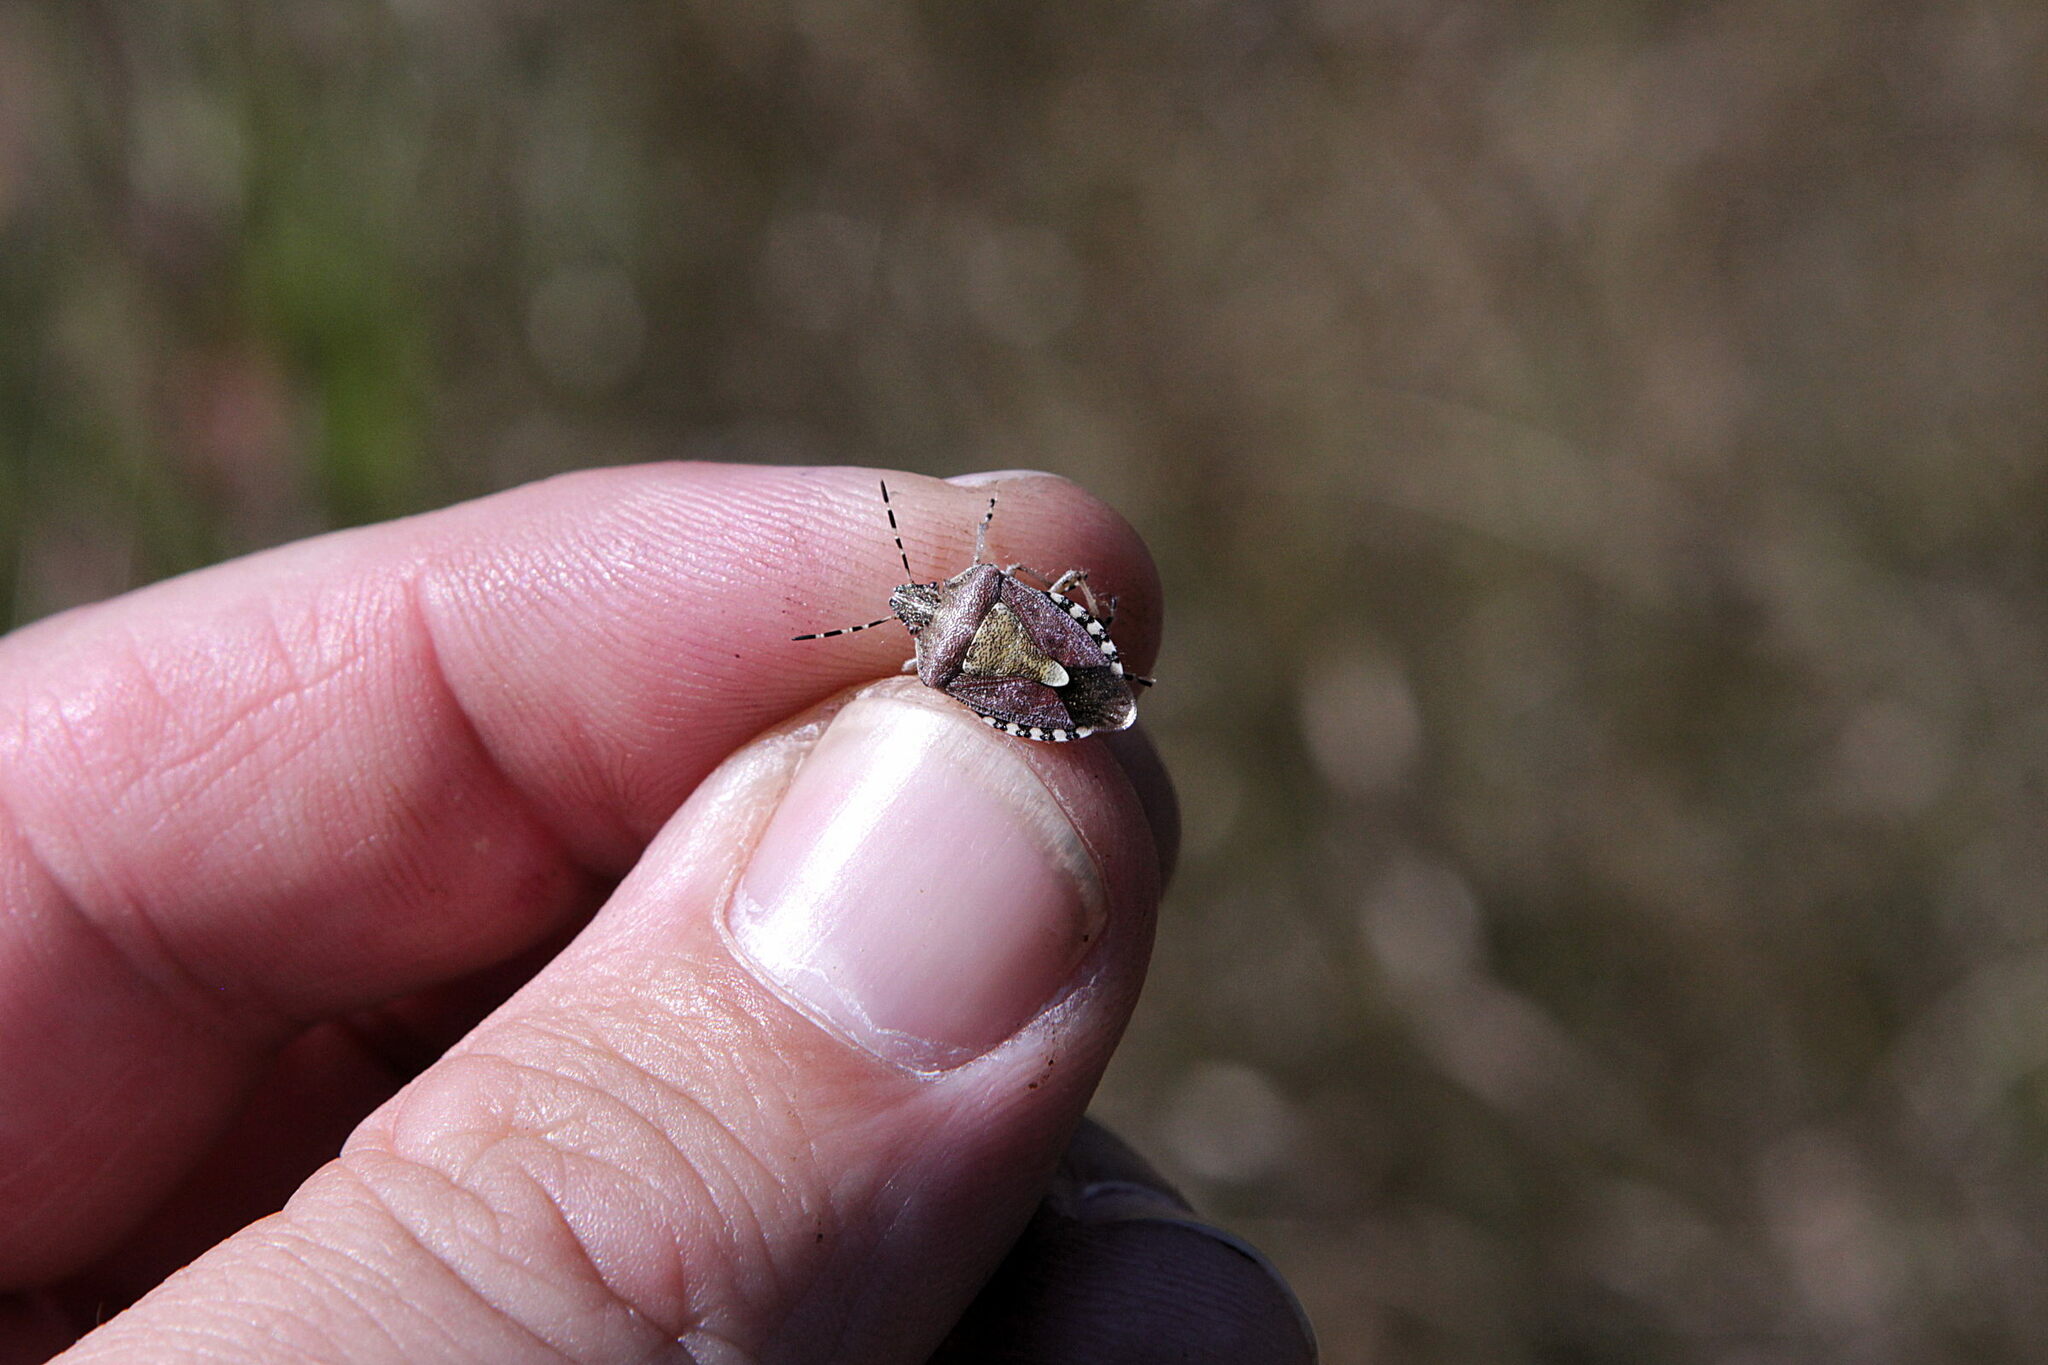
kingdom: Animalia
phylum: Arthropoda
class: Insecta
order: Hemiptera
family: Pentatomidae
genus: Dolycoris
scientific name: Dolycoris baccarum
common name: Sloe bug
